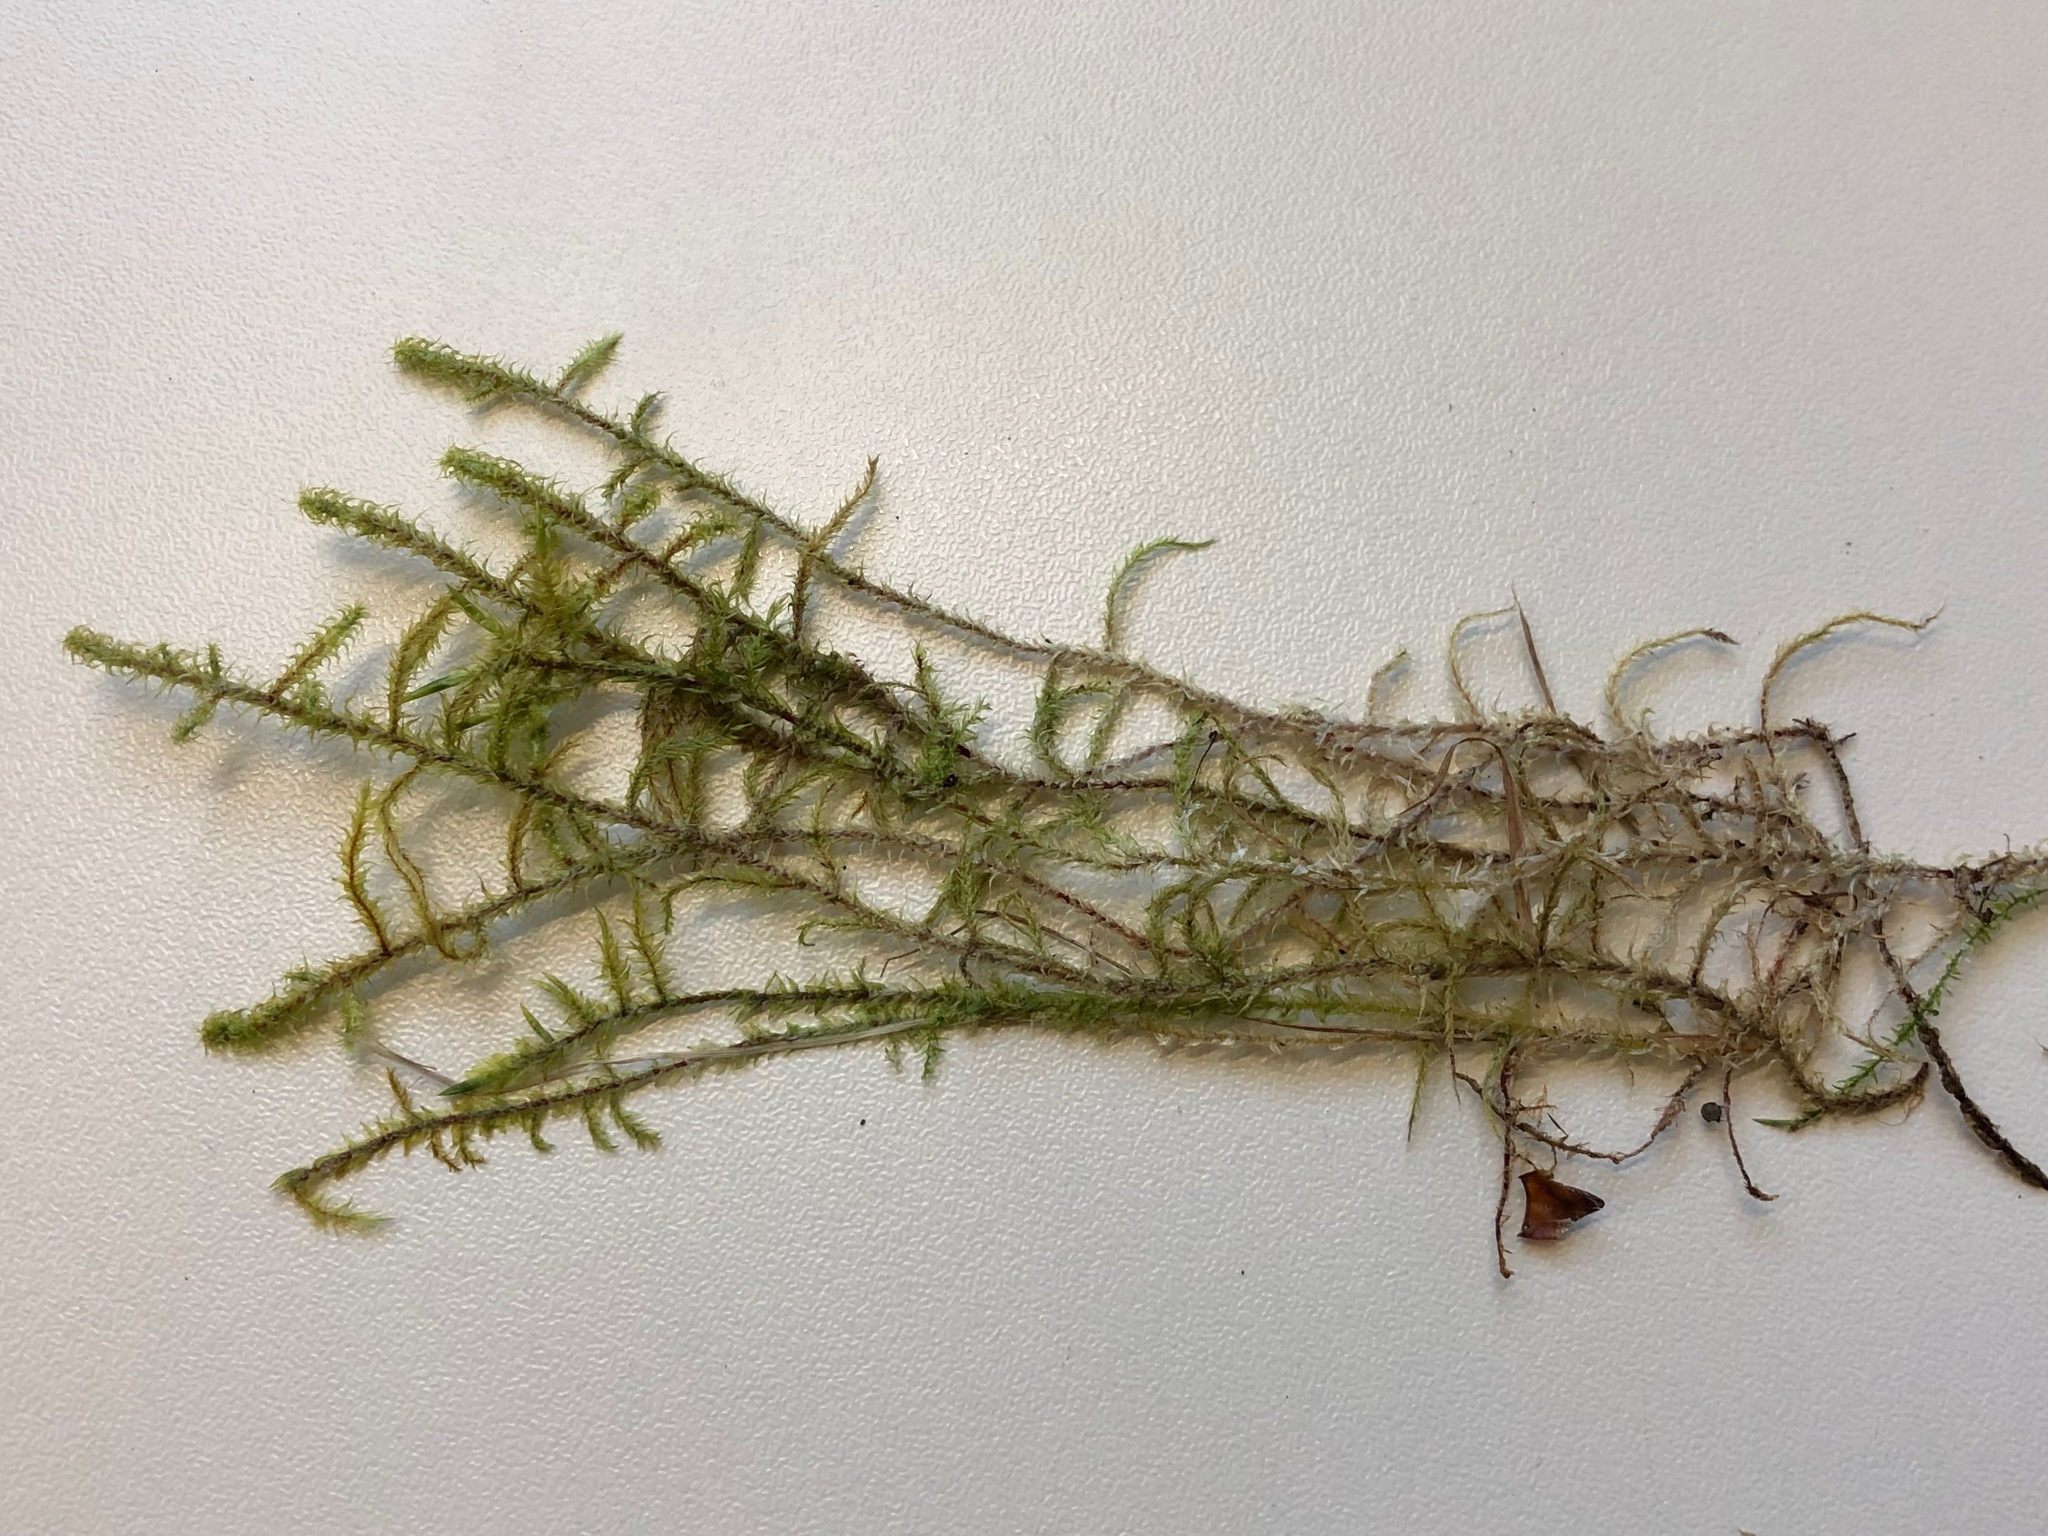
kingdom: Plantae
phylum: Bryophyta
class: Bryopsida
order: Hypnales
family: Hylocomiaceae
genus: Rhytidiadelphus
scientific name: Rhytidiadelphus squarrosus
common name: Springy turf-moss
